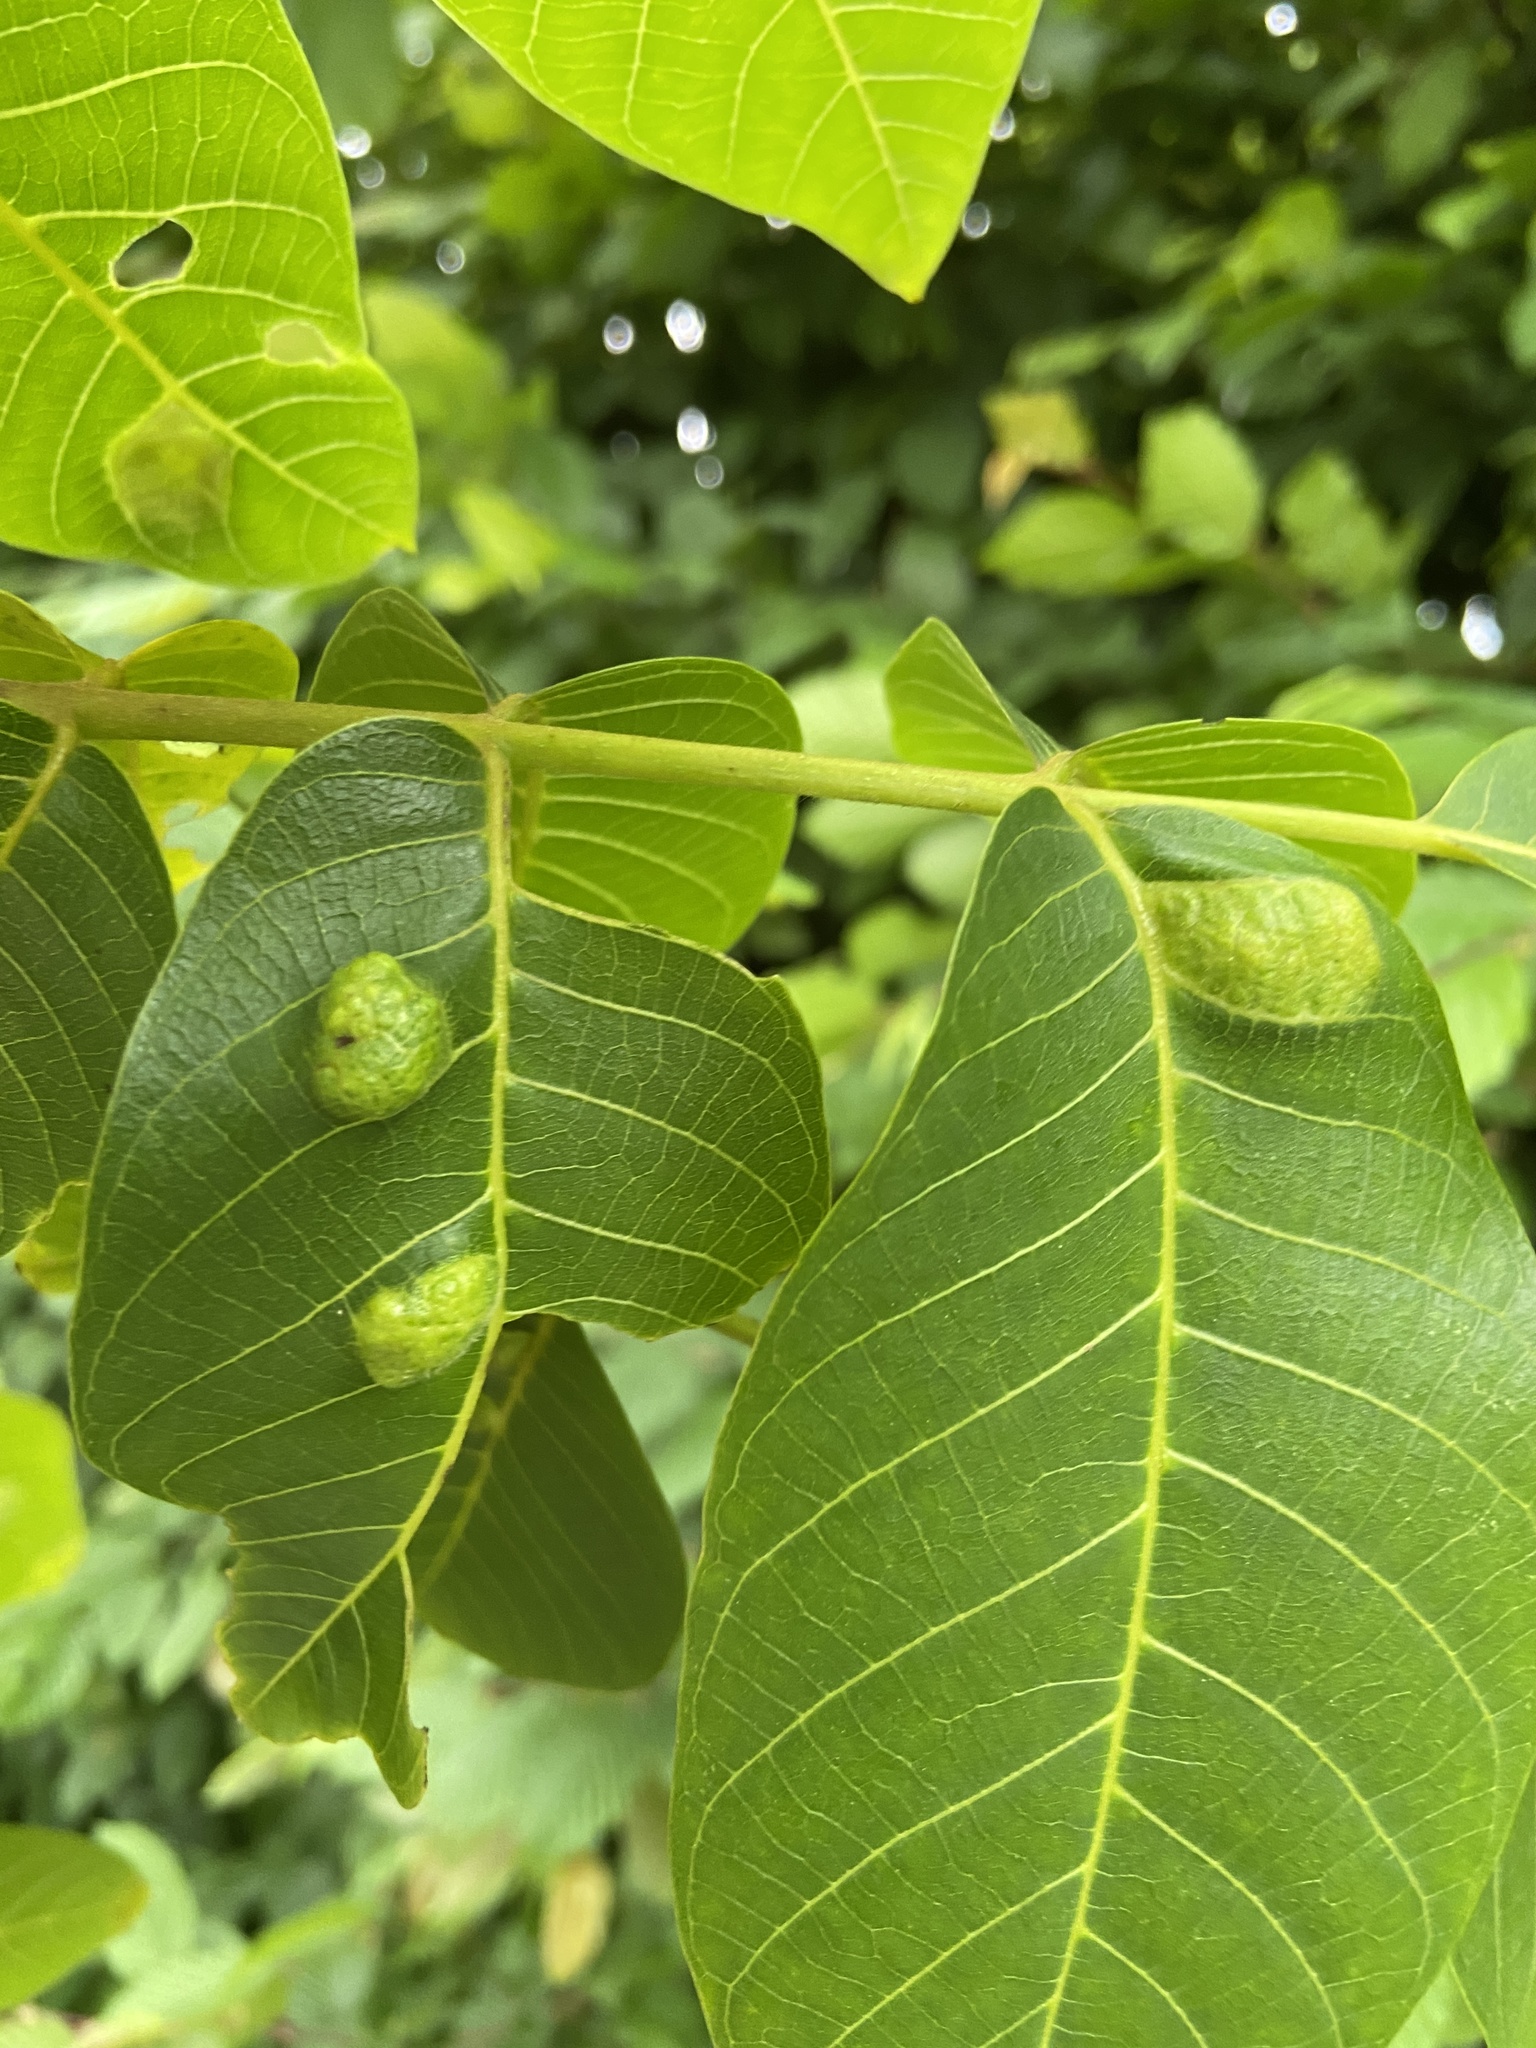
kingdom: Animalia
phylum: Arthropoda
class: Arachnida
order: Trombidiformes
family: Eriophyidae
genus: Aceria
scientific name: Aceria erinea
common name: Persian walnut erineum mite
